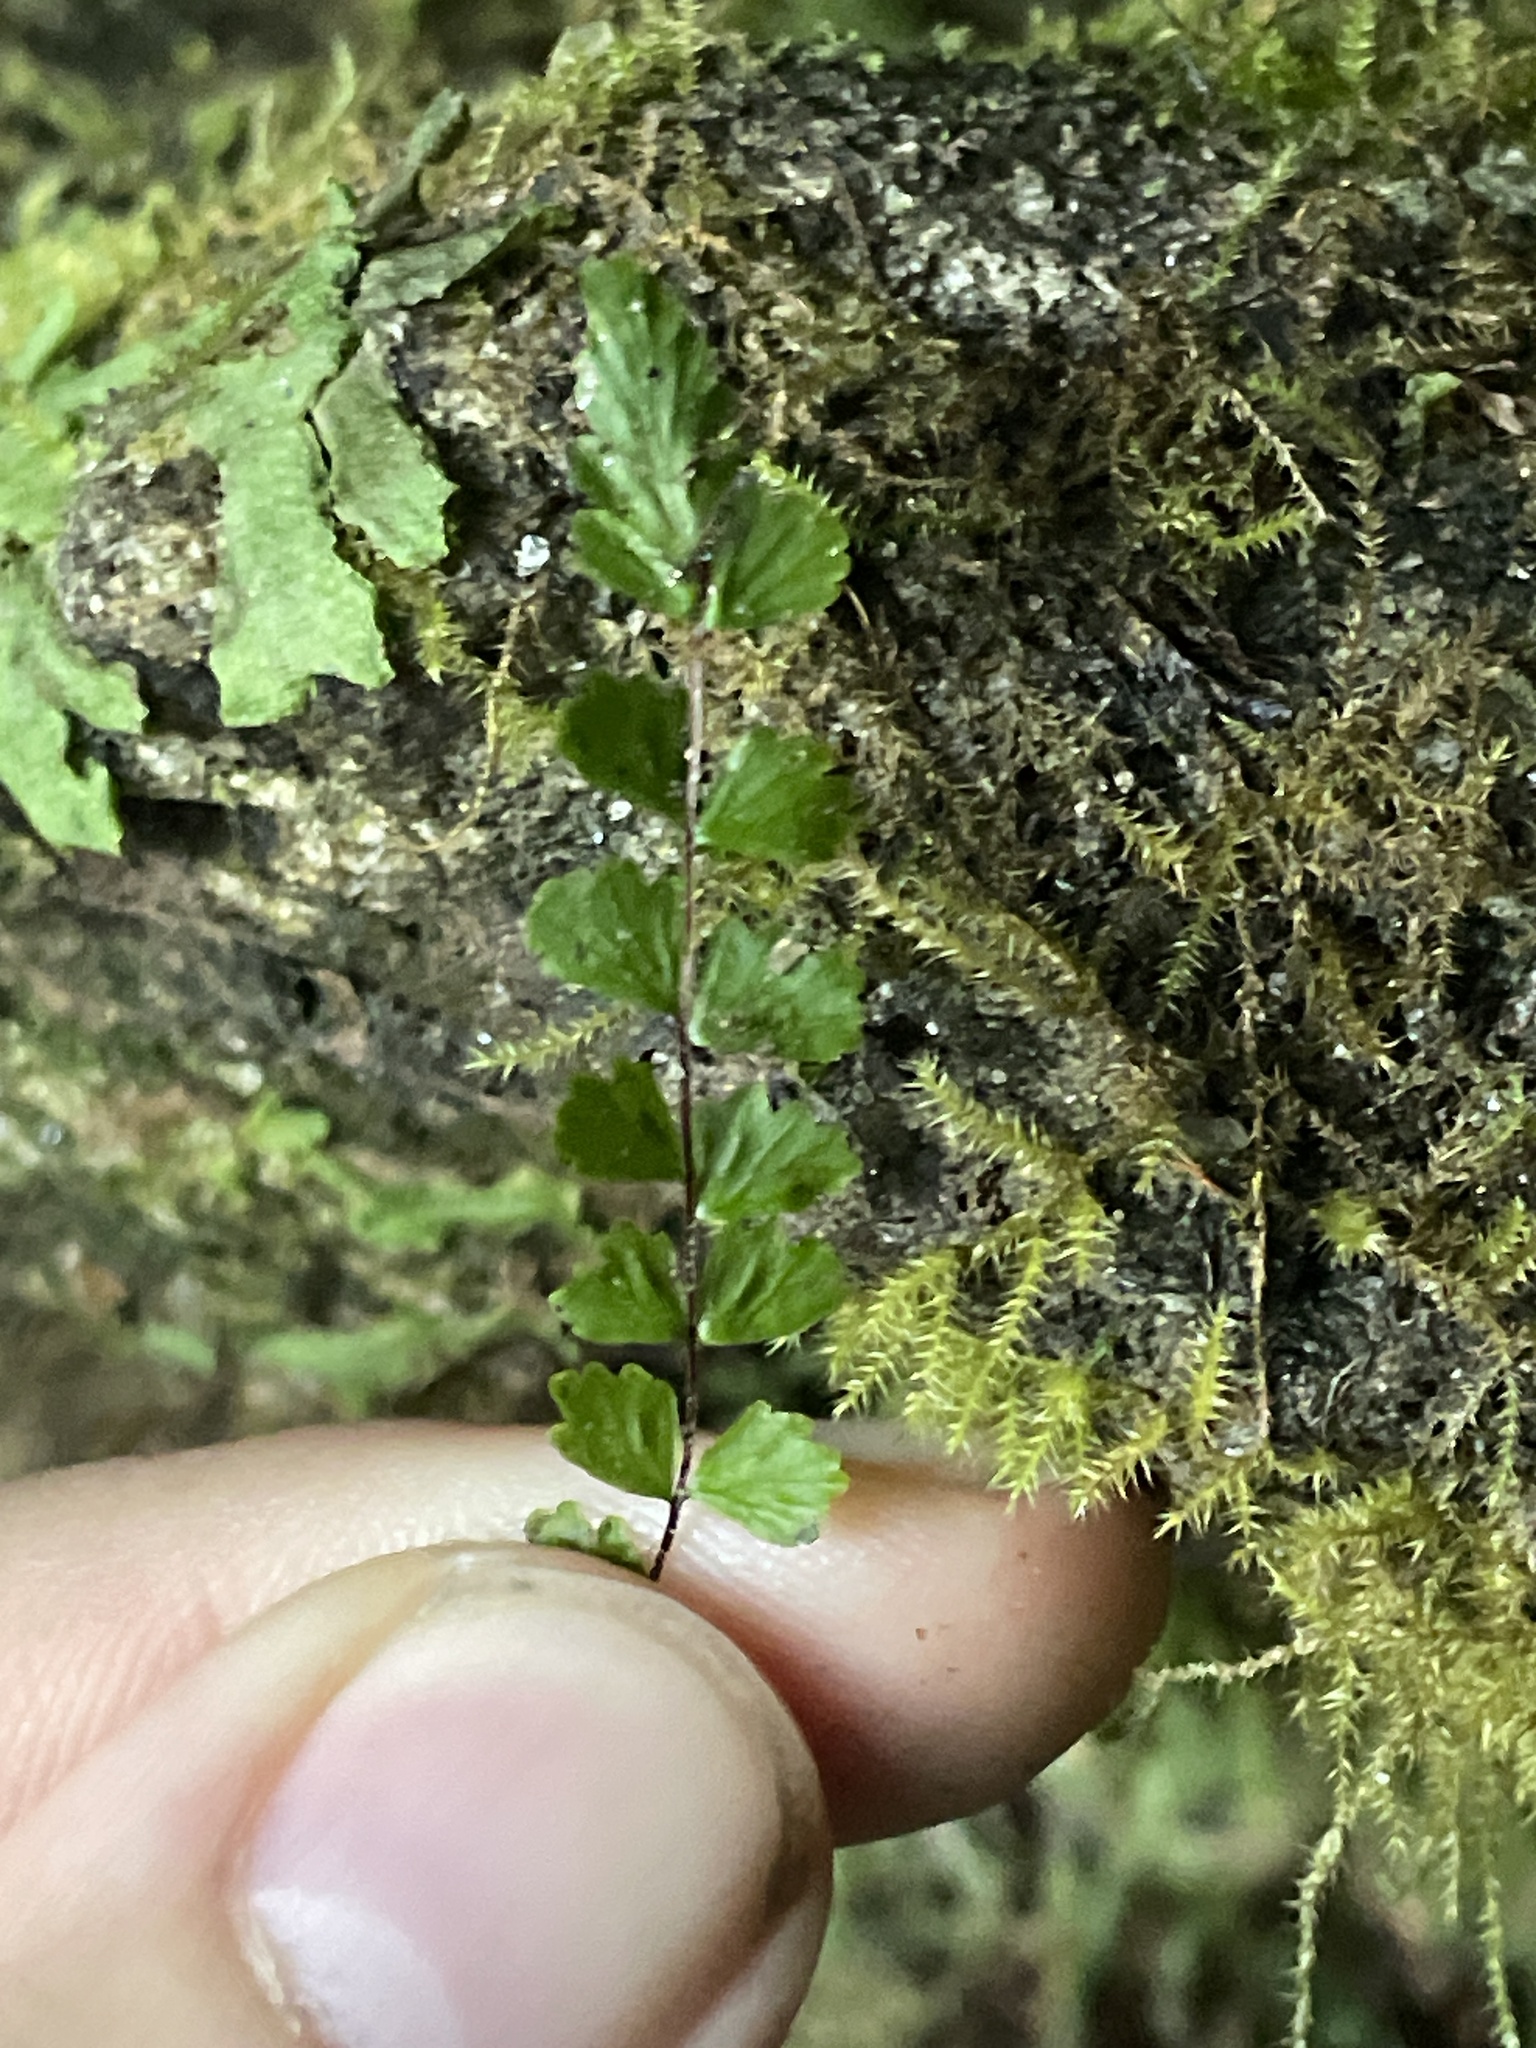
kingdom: Plantae
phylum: Tracheophyta
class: Polypodiopsida
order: Polypodiales
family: Aspleniaceae
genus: Asplenium
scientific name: Asplenium trichomanes
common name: Maidenhair spleenwort
